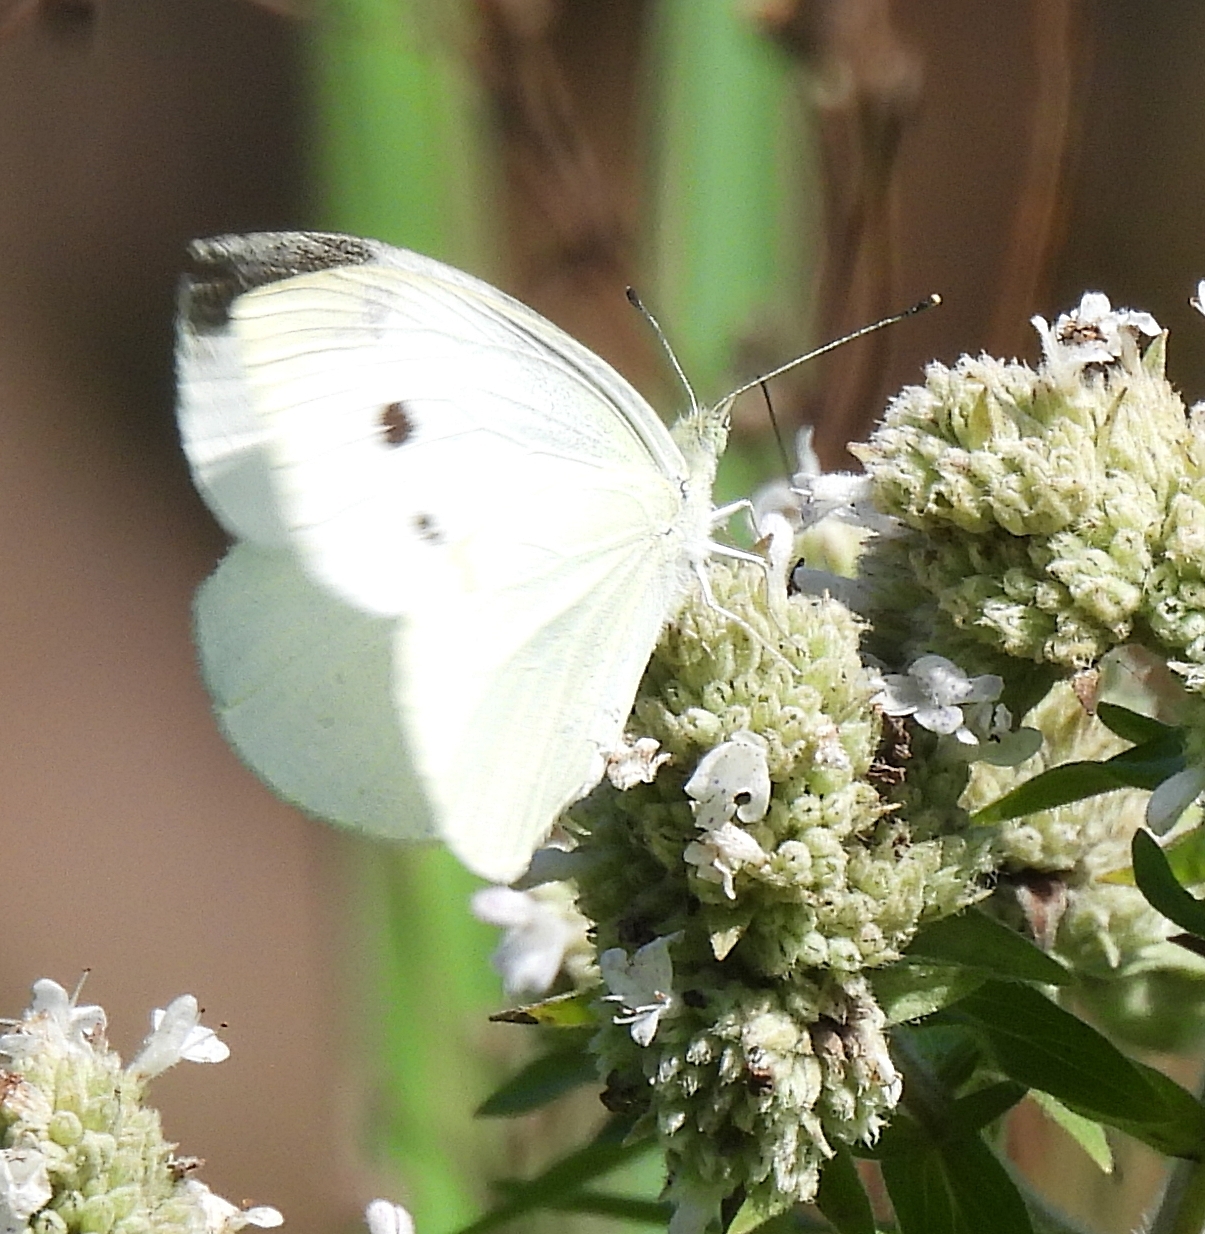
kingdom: Animalia
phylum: Arthropoda
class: Insecta
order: Lepidoptera
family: Pieridae
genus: Pieris
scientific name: Pieris rapae
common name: Small white
